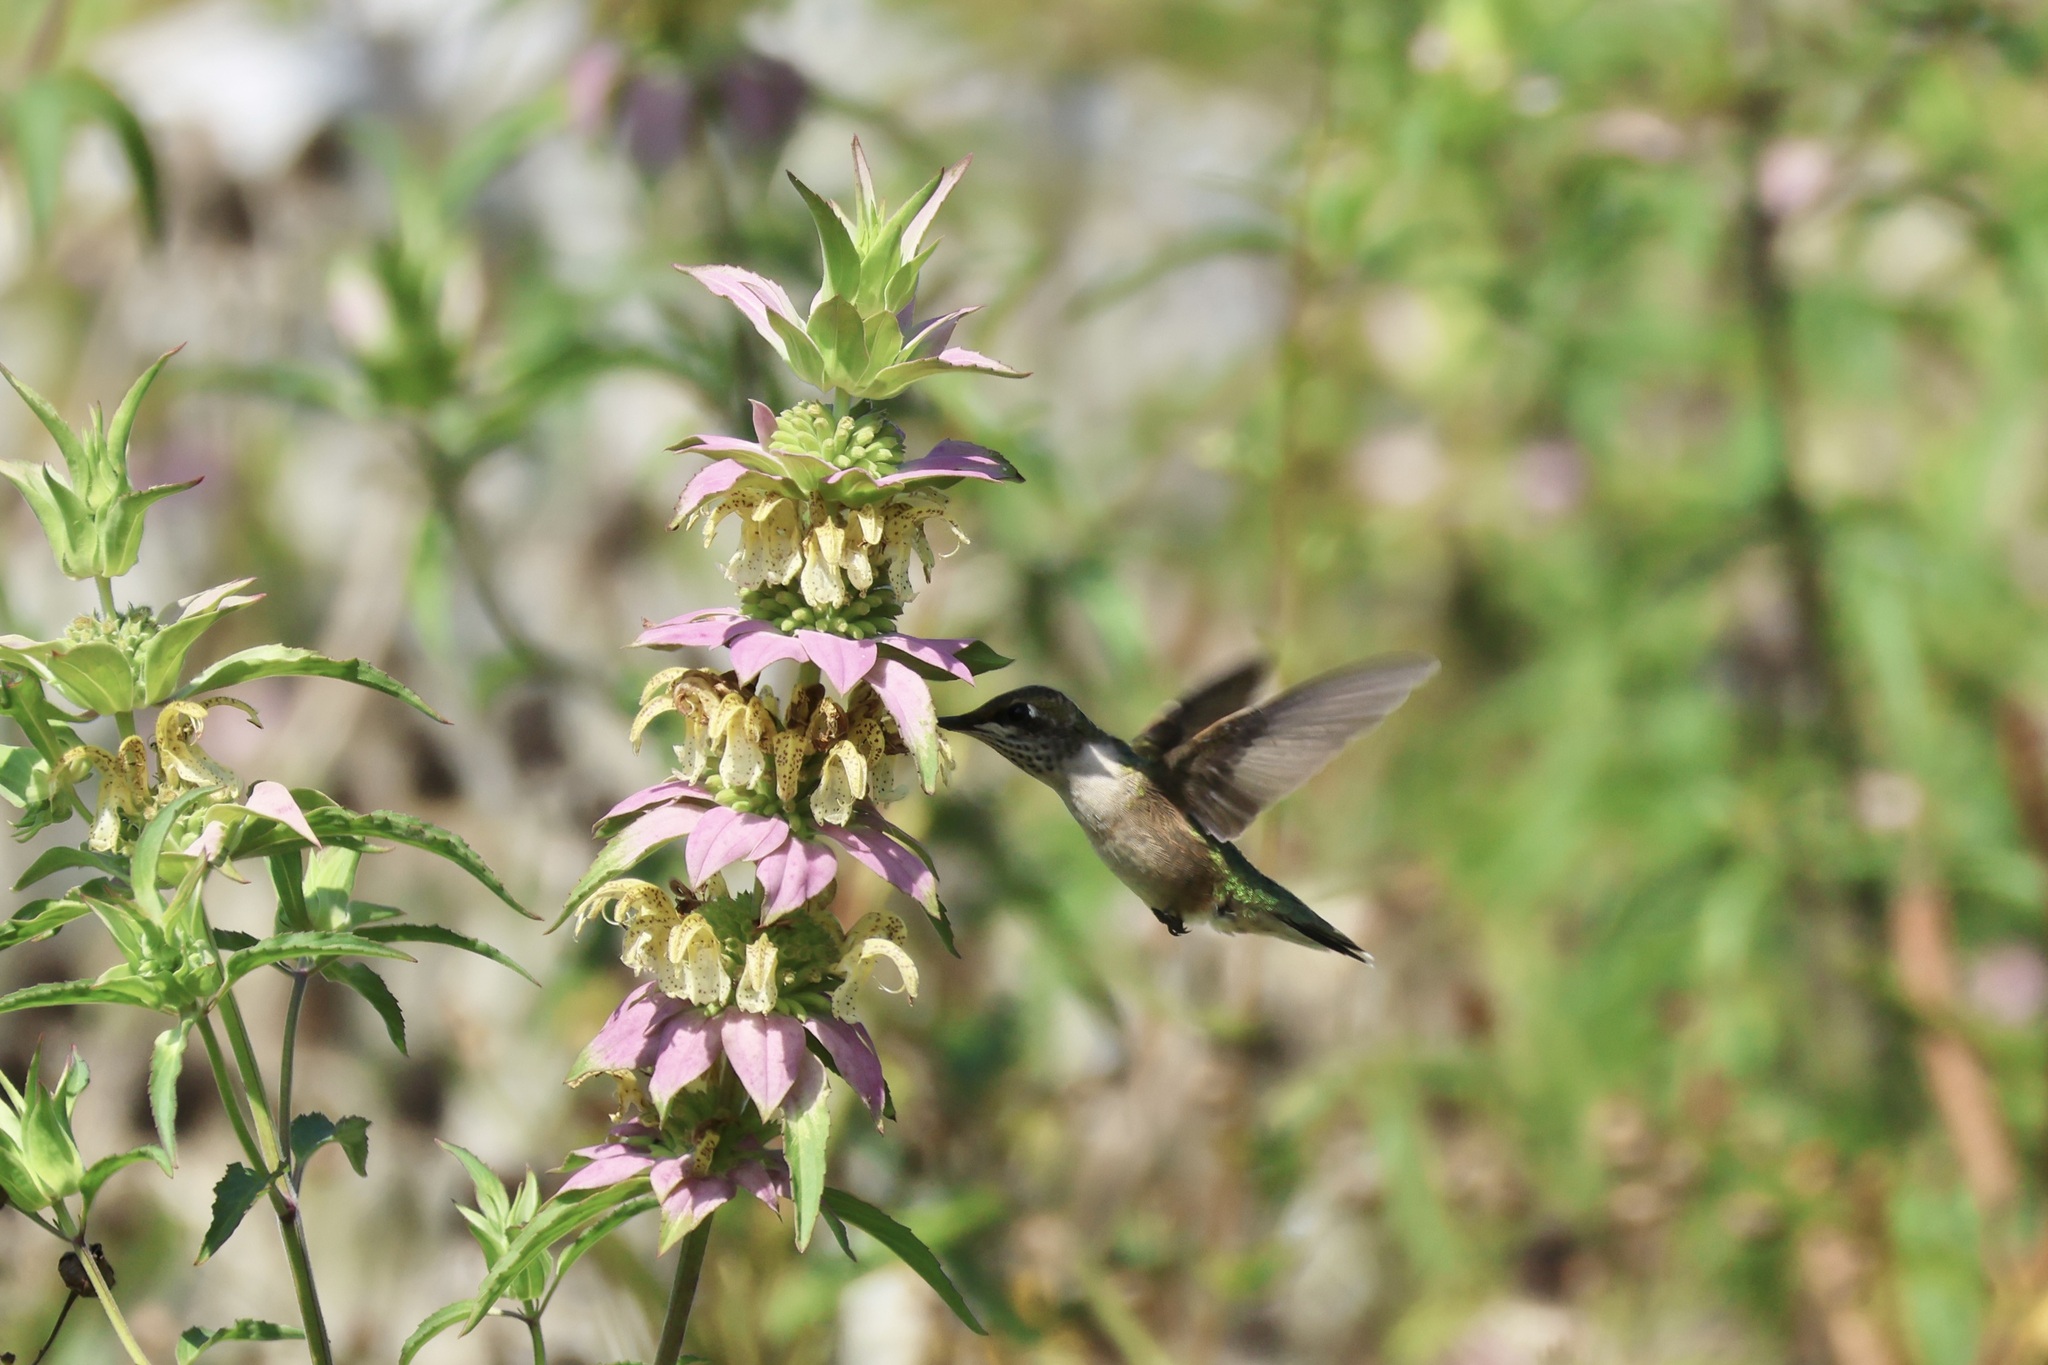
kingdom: Animalia
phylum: Chordata
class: Aves
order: Apodiformes
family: Trochilidae
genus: Archilochus
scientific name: Archilochus colubris
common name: Ruby-throated hummingbird
